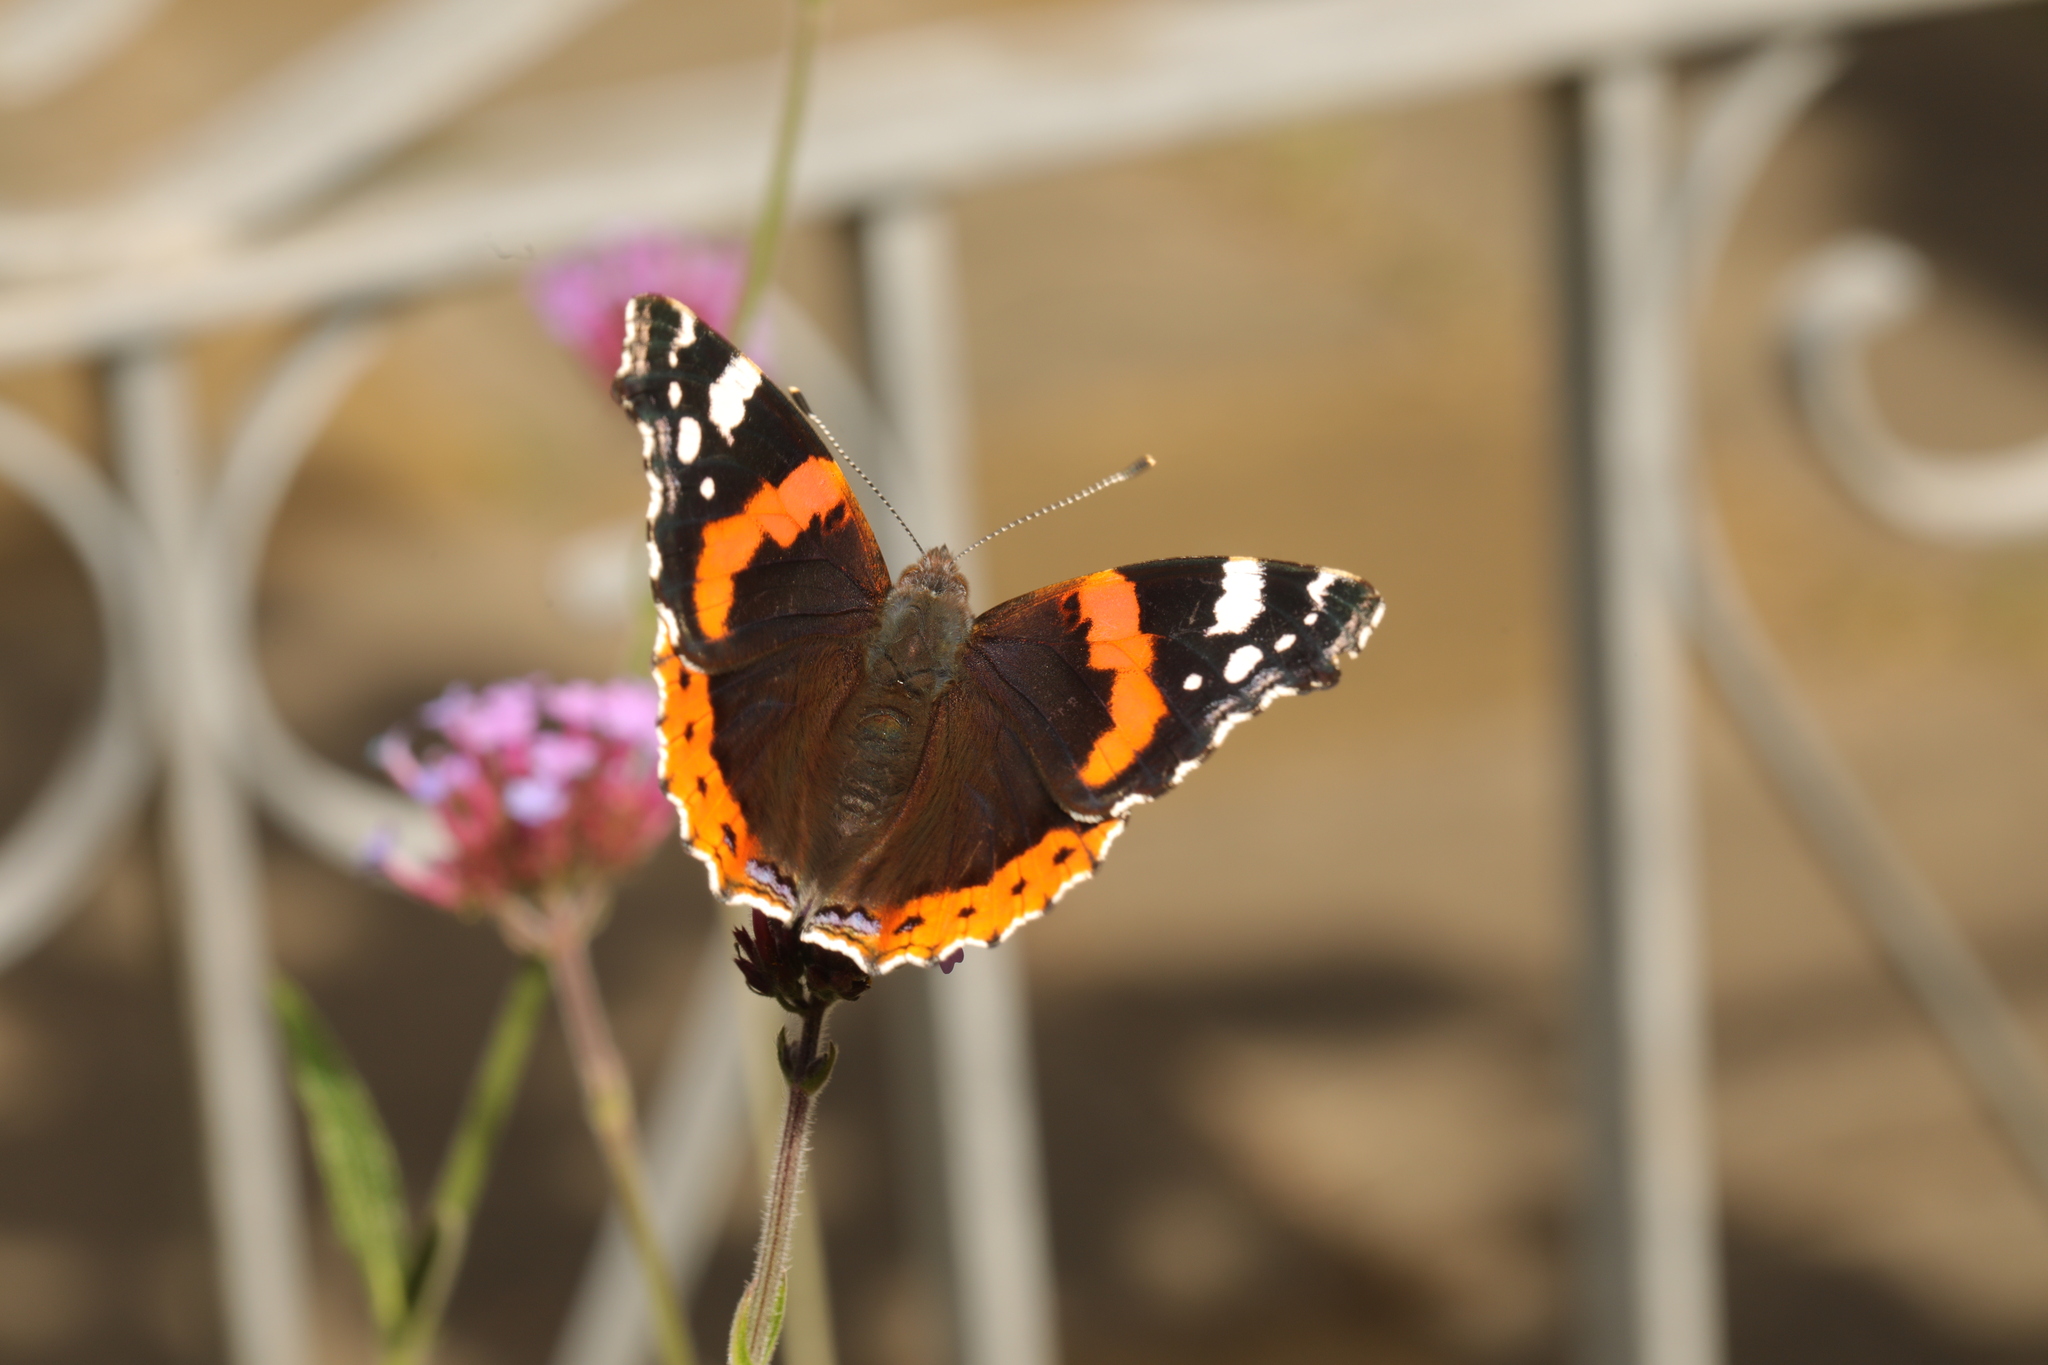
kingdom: Animalia
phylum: Arthropoda
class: Insecta
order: Lepidoptera
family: Nymphalidae
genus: Vanessa
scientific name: Vanessa atalanta
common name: Red admiral
